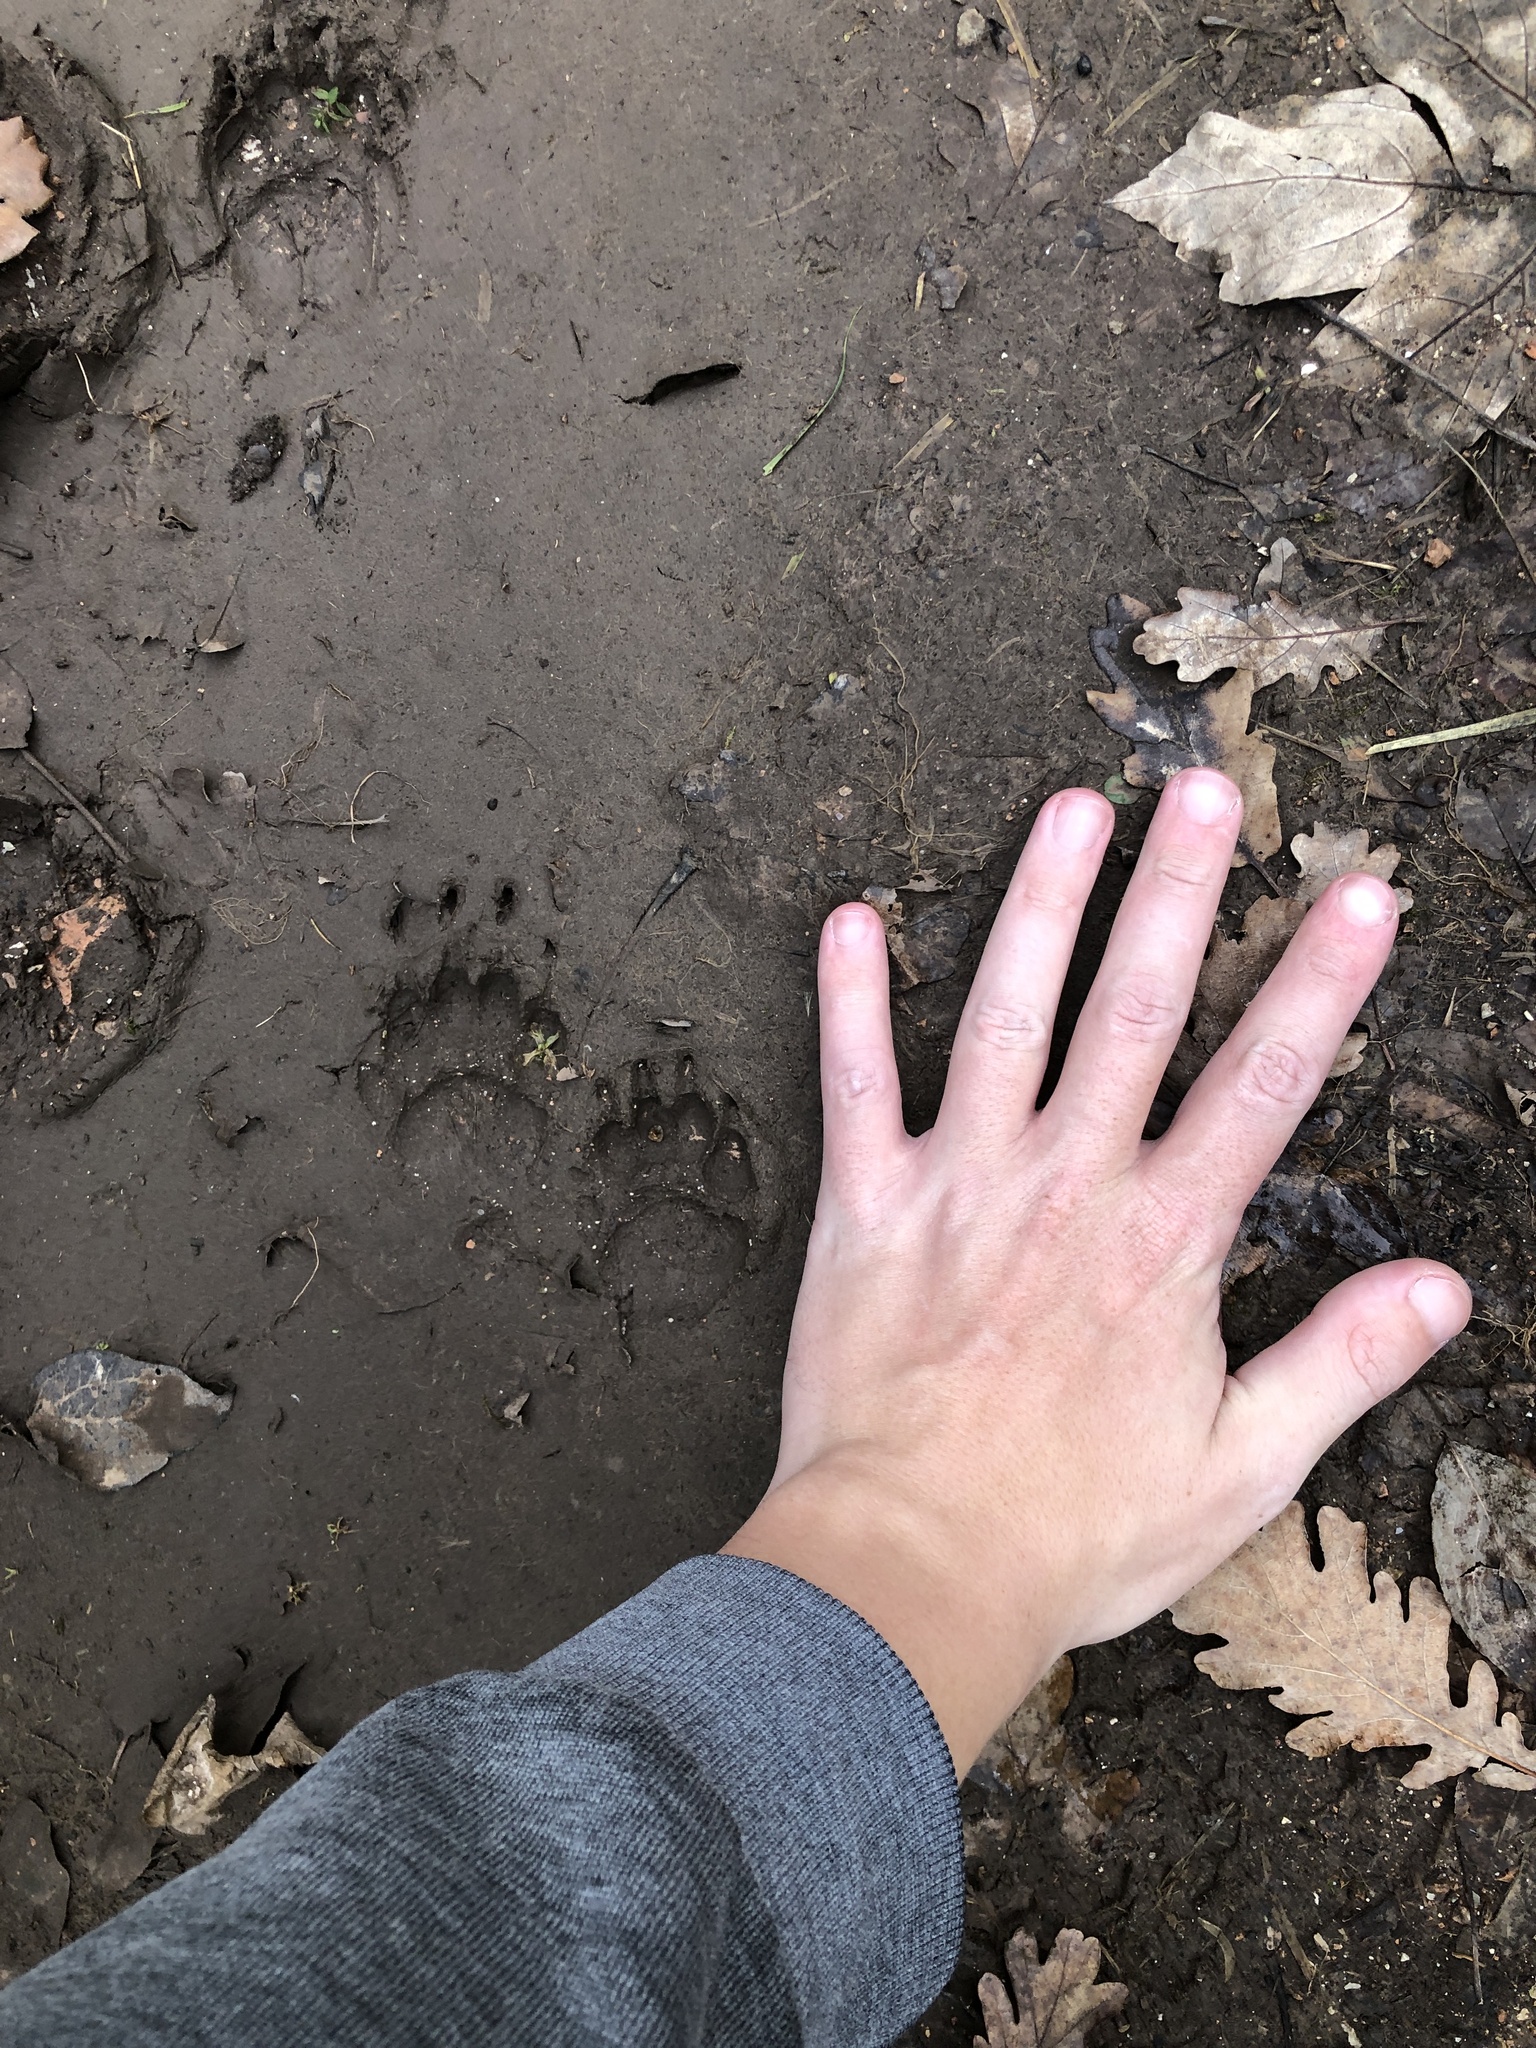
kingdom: Animalia
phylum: Chordata
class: Mammalia
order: Carnivora
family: Mustelidae
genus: Meles
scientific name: Meles meles
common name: Eurasian badger
